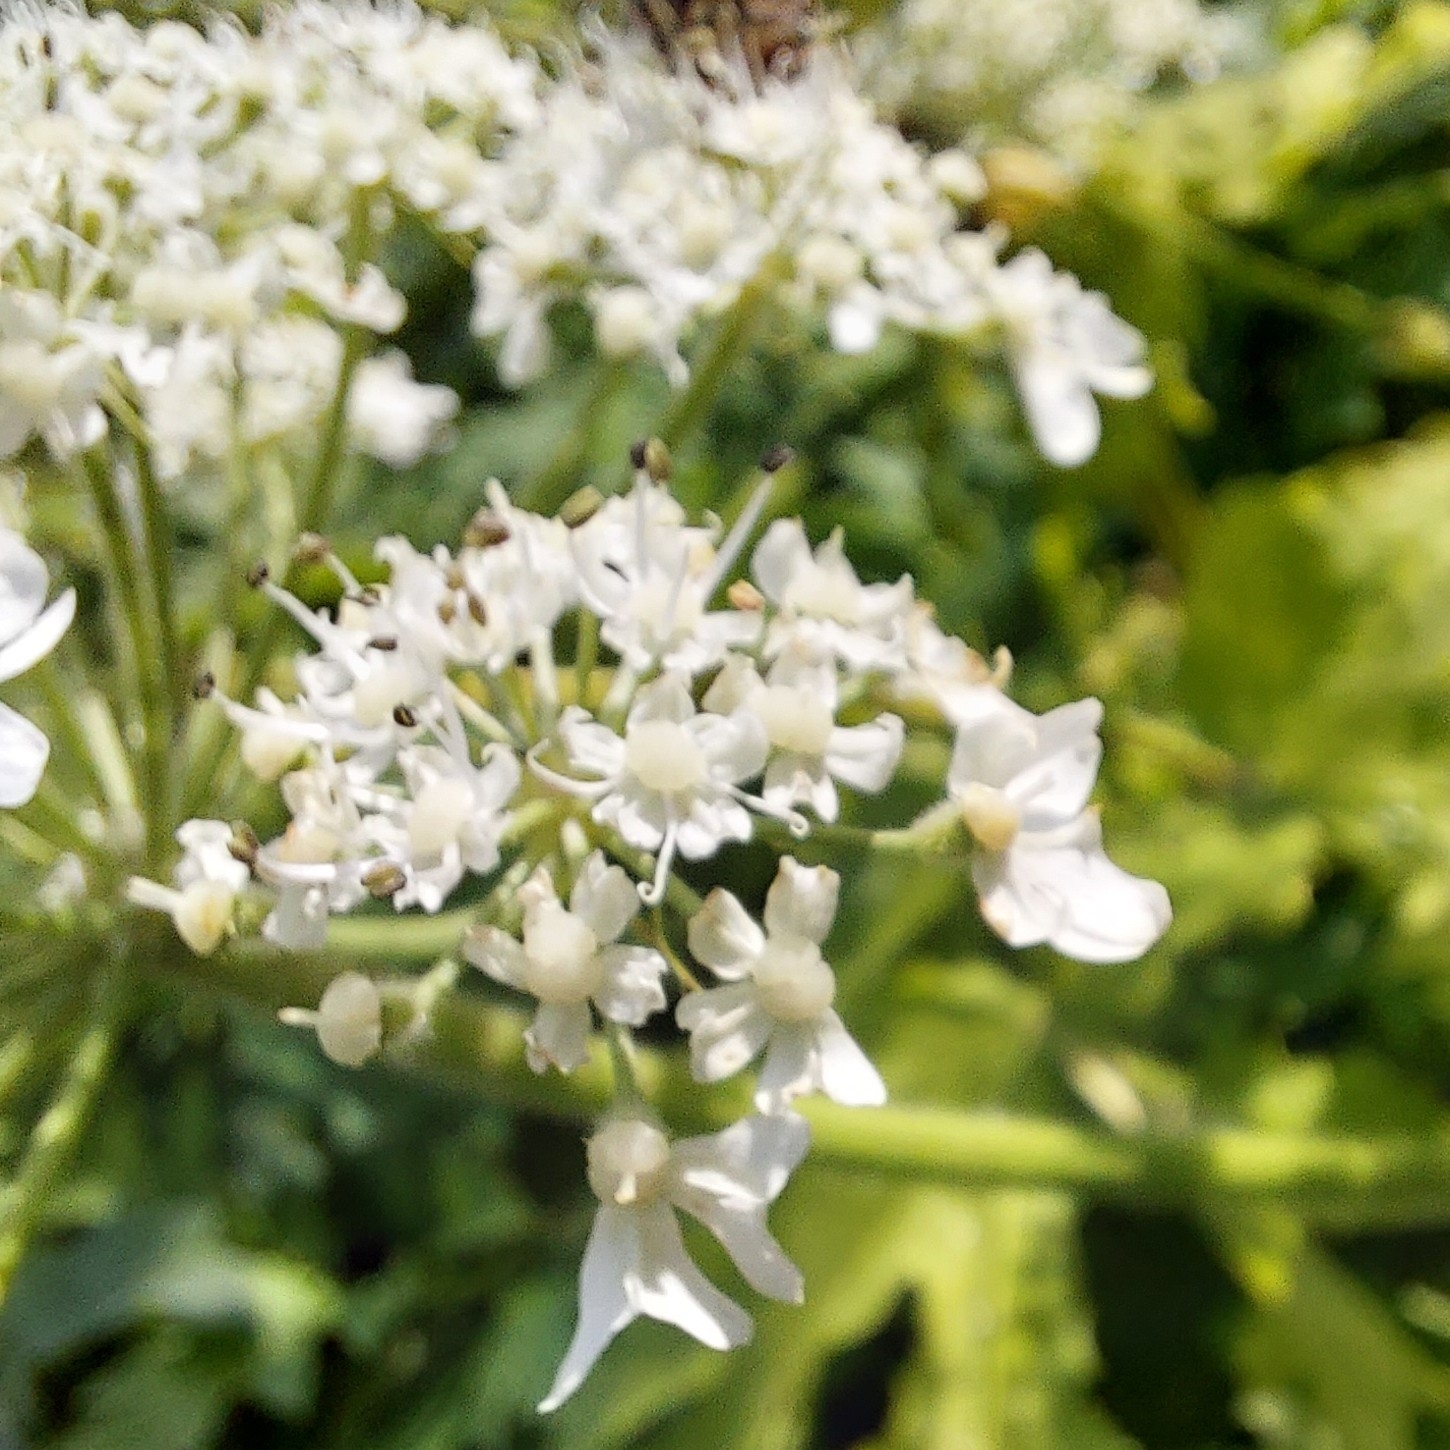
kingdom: Plantae
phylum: Tracheophyta
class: Magnoliopsida
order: Apiales
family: Apiaceae
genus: Heracleum
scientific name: Heracleum sphondylium
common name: Hogweed
